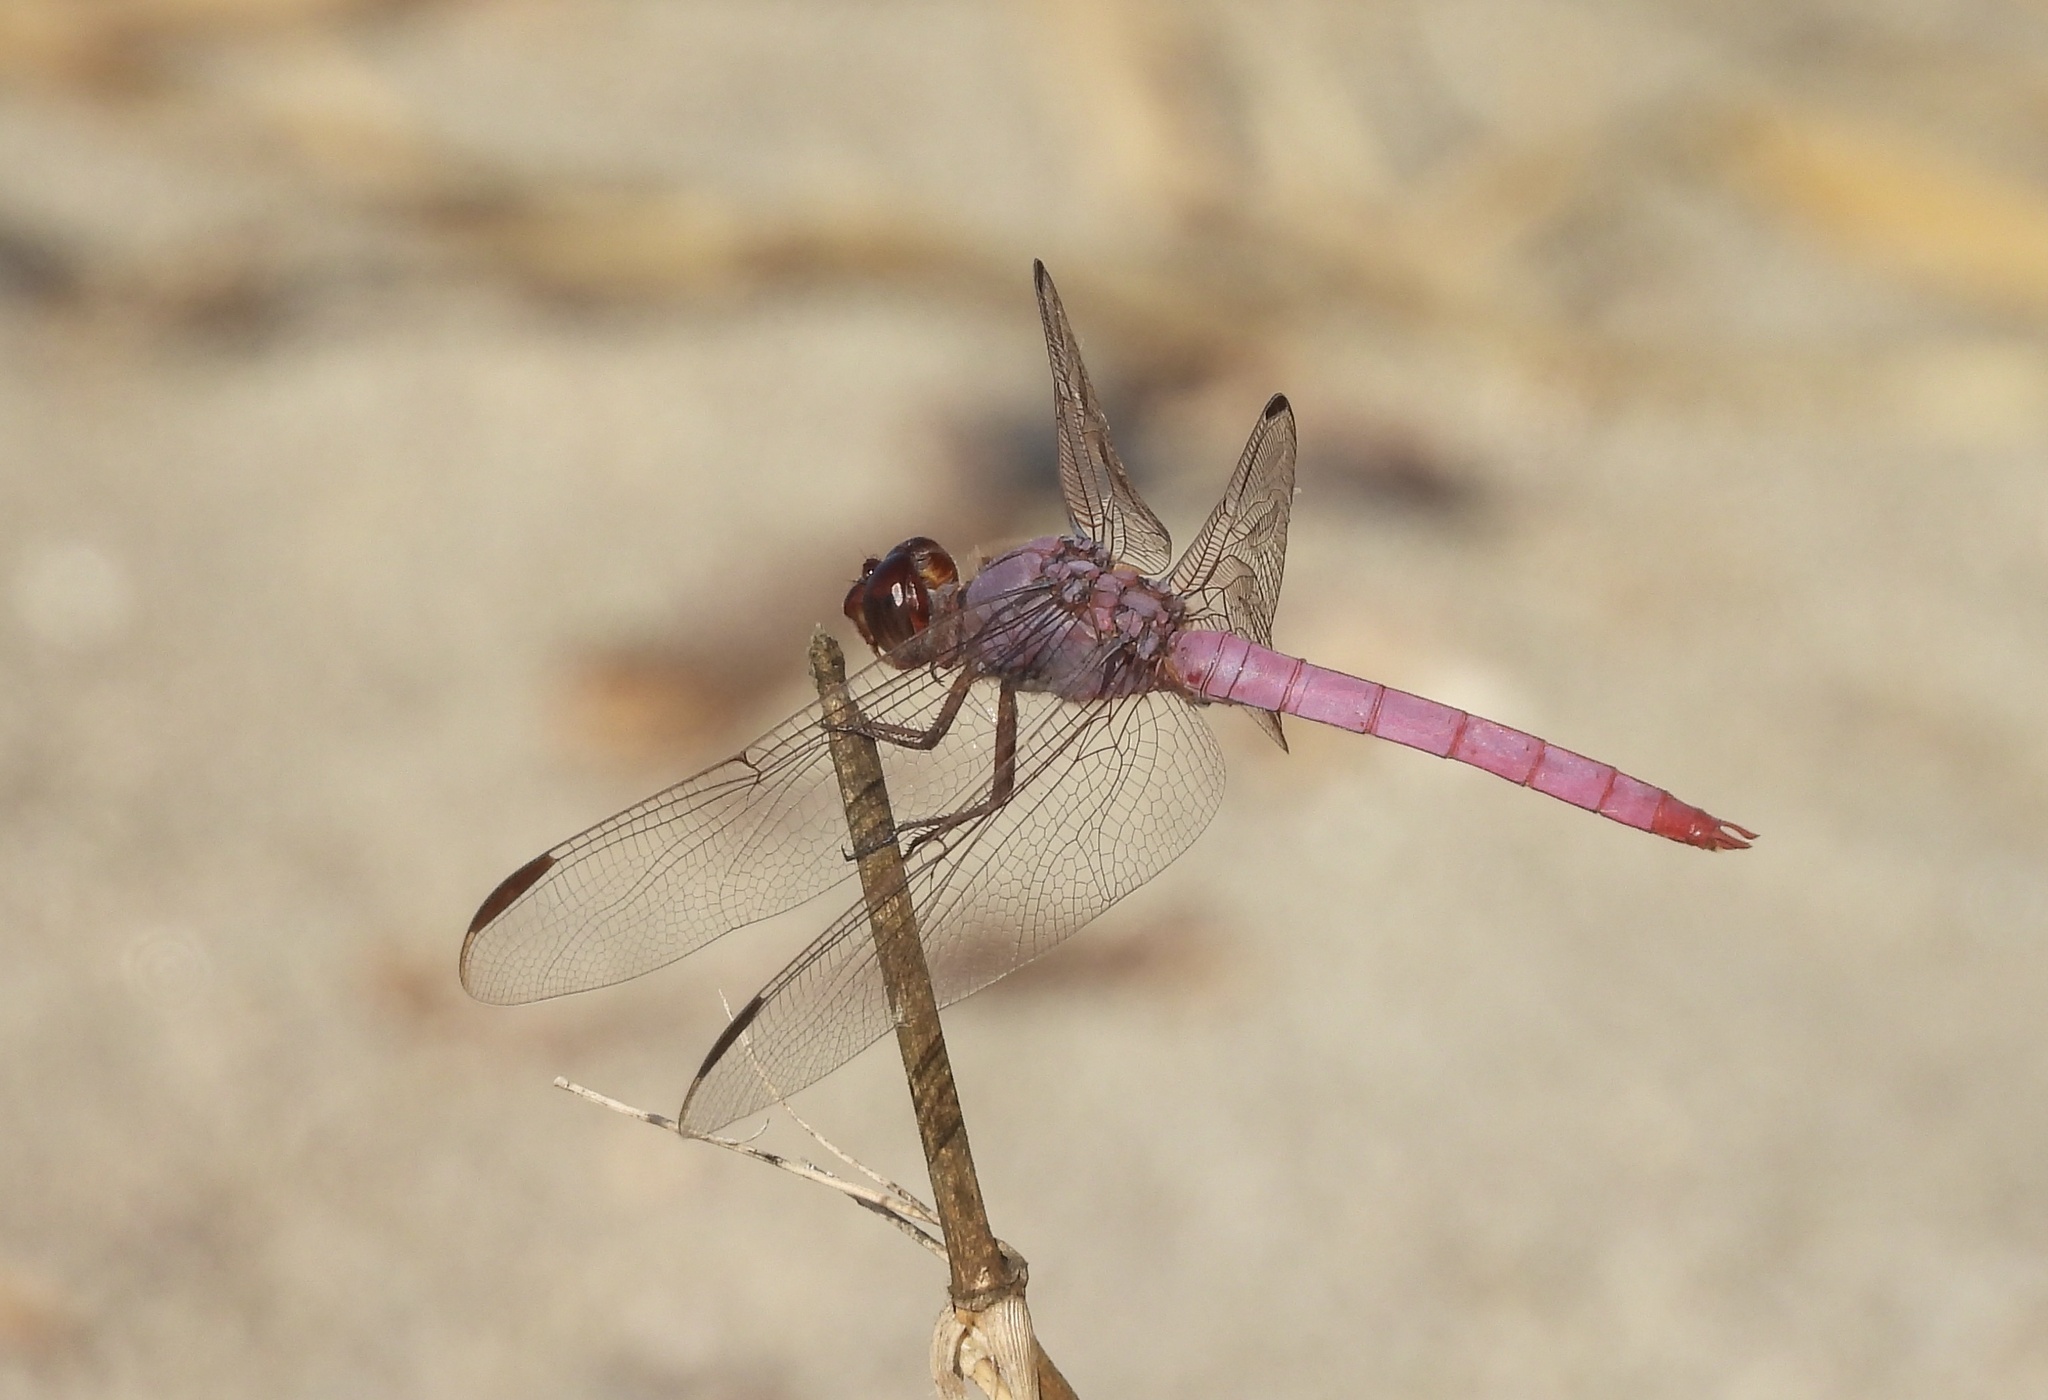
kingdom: Animalia
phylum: Arthropoda
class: Insecta
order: Odonata
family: Libellulidae
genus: Orthemis
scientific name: Orthemis ferruginea
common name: Roseate skimmer
